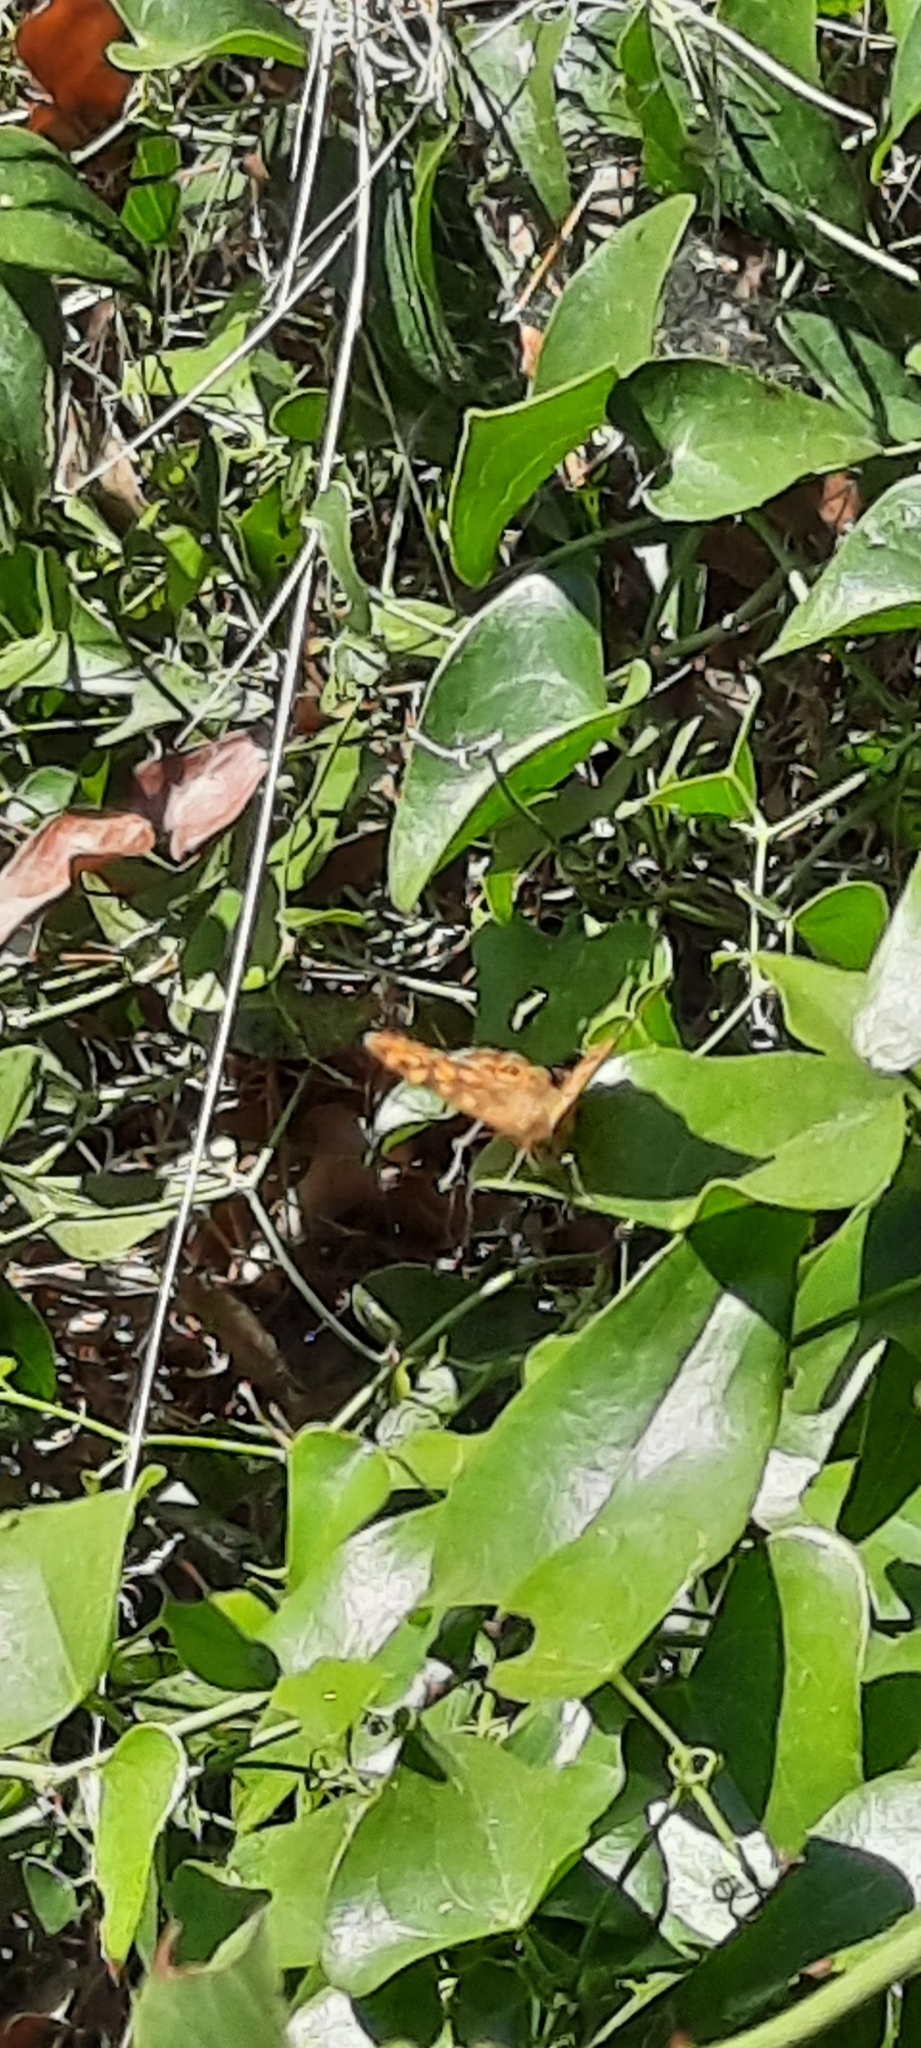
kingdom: Animalia
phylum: Arthropoda
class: Insecta
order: Lepidoptera
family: Nymphalidae
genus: Pararge
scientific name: Pararge aegeria
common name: Speckled wood
